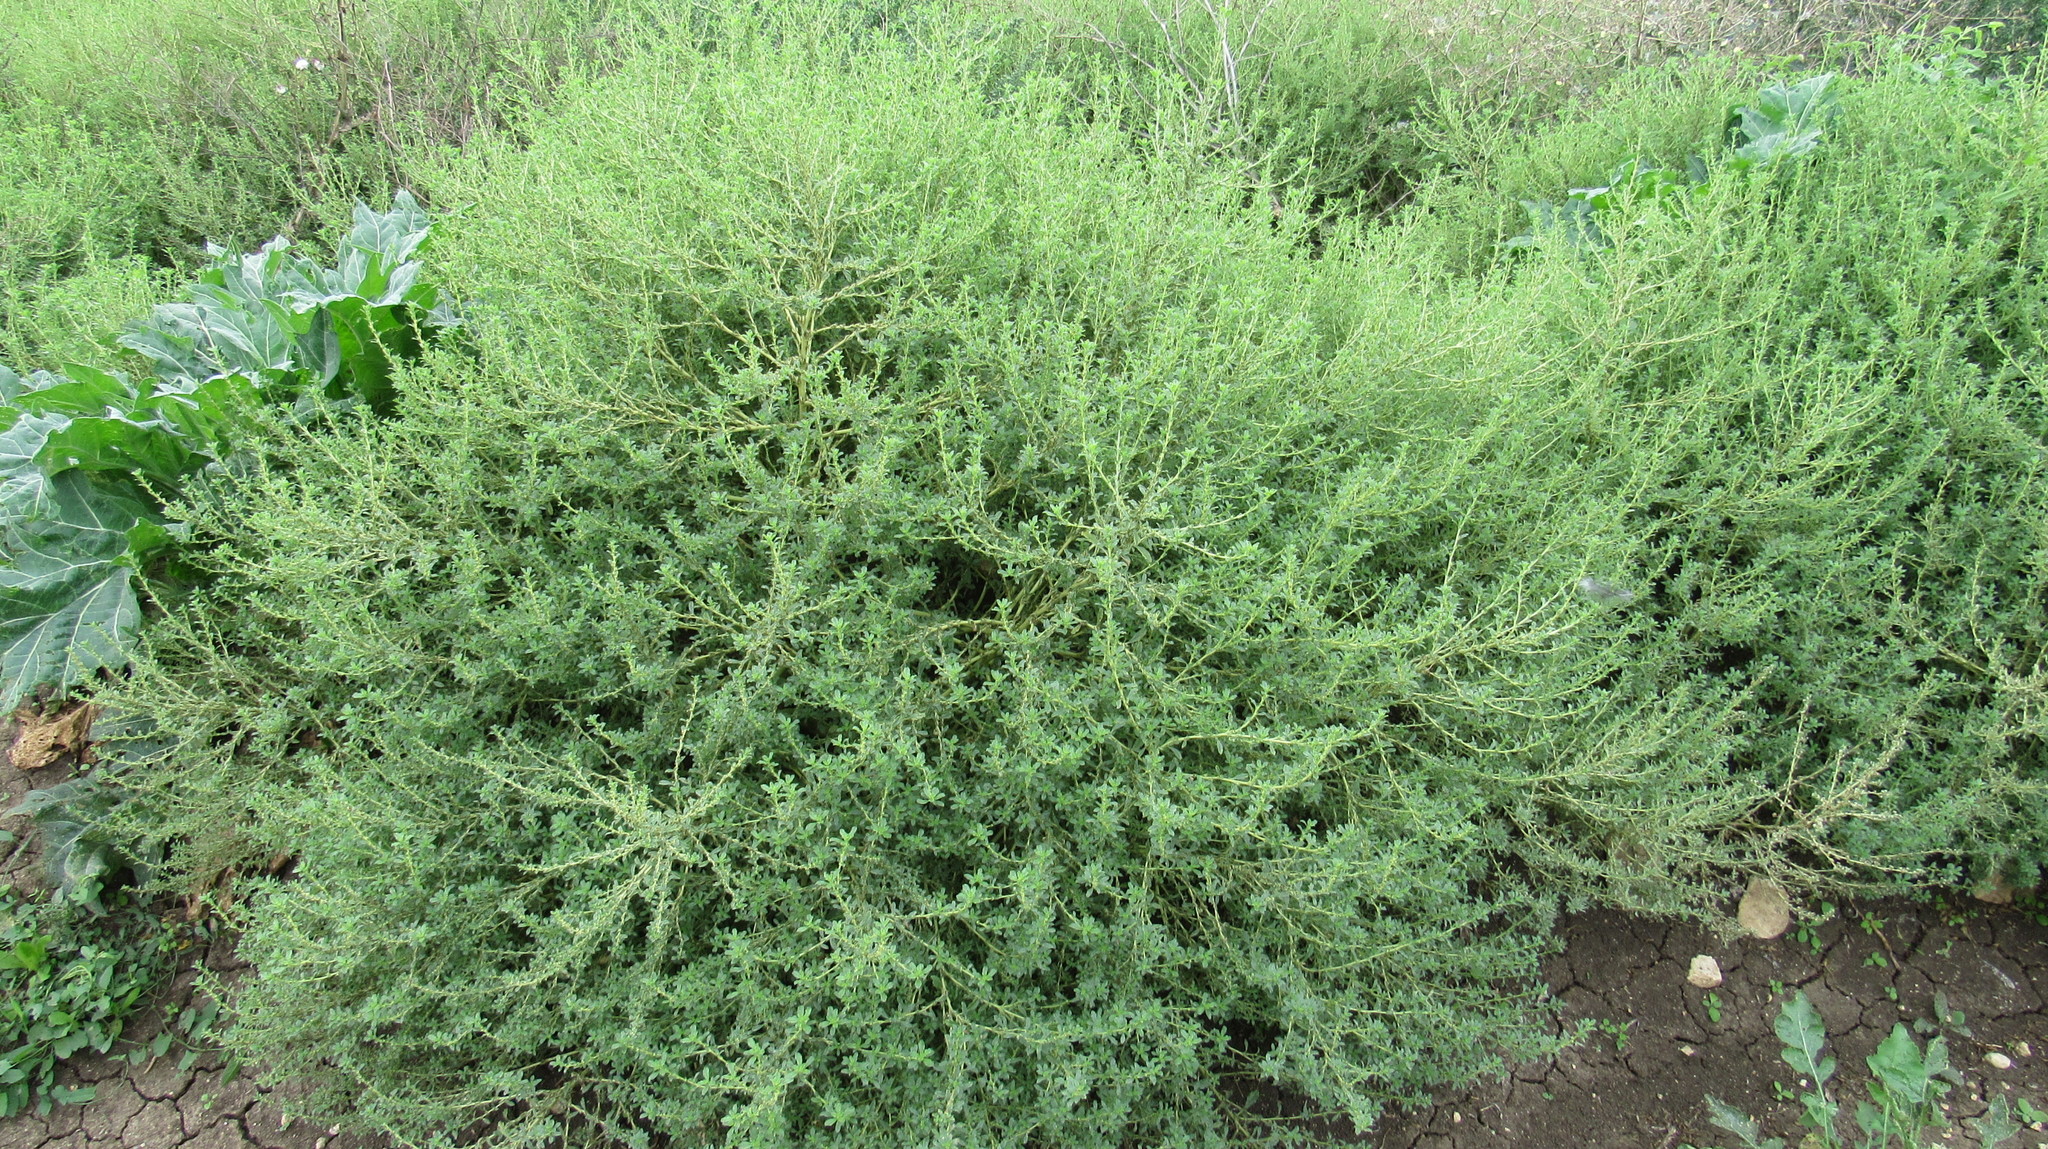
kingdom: Plantae
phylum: Tracheophyta
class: Magnoliopsida
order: Caryophyllales
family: Amaranthaceae
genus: Amaranthus
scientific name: Amaranthus albus
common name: White pigweed
